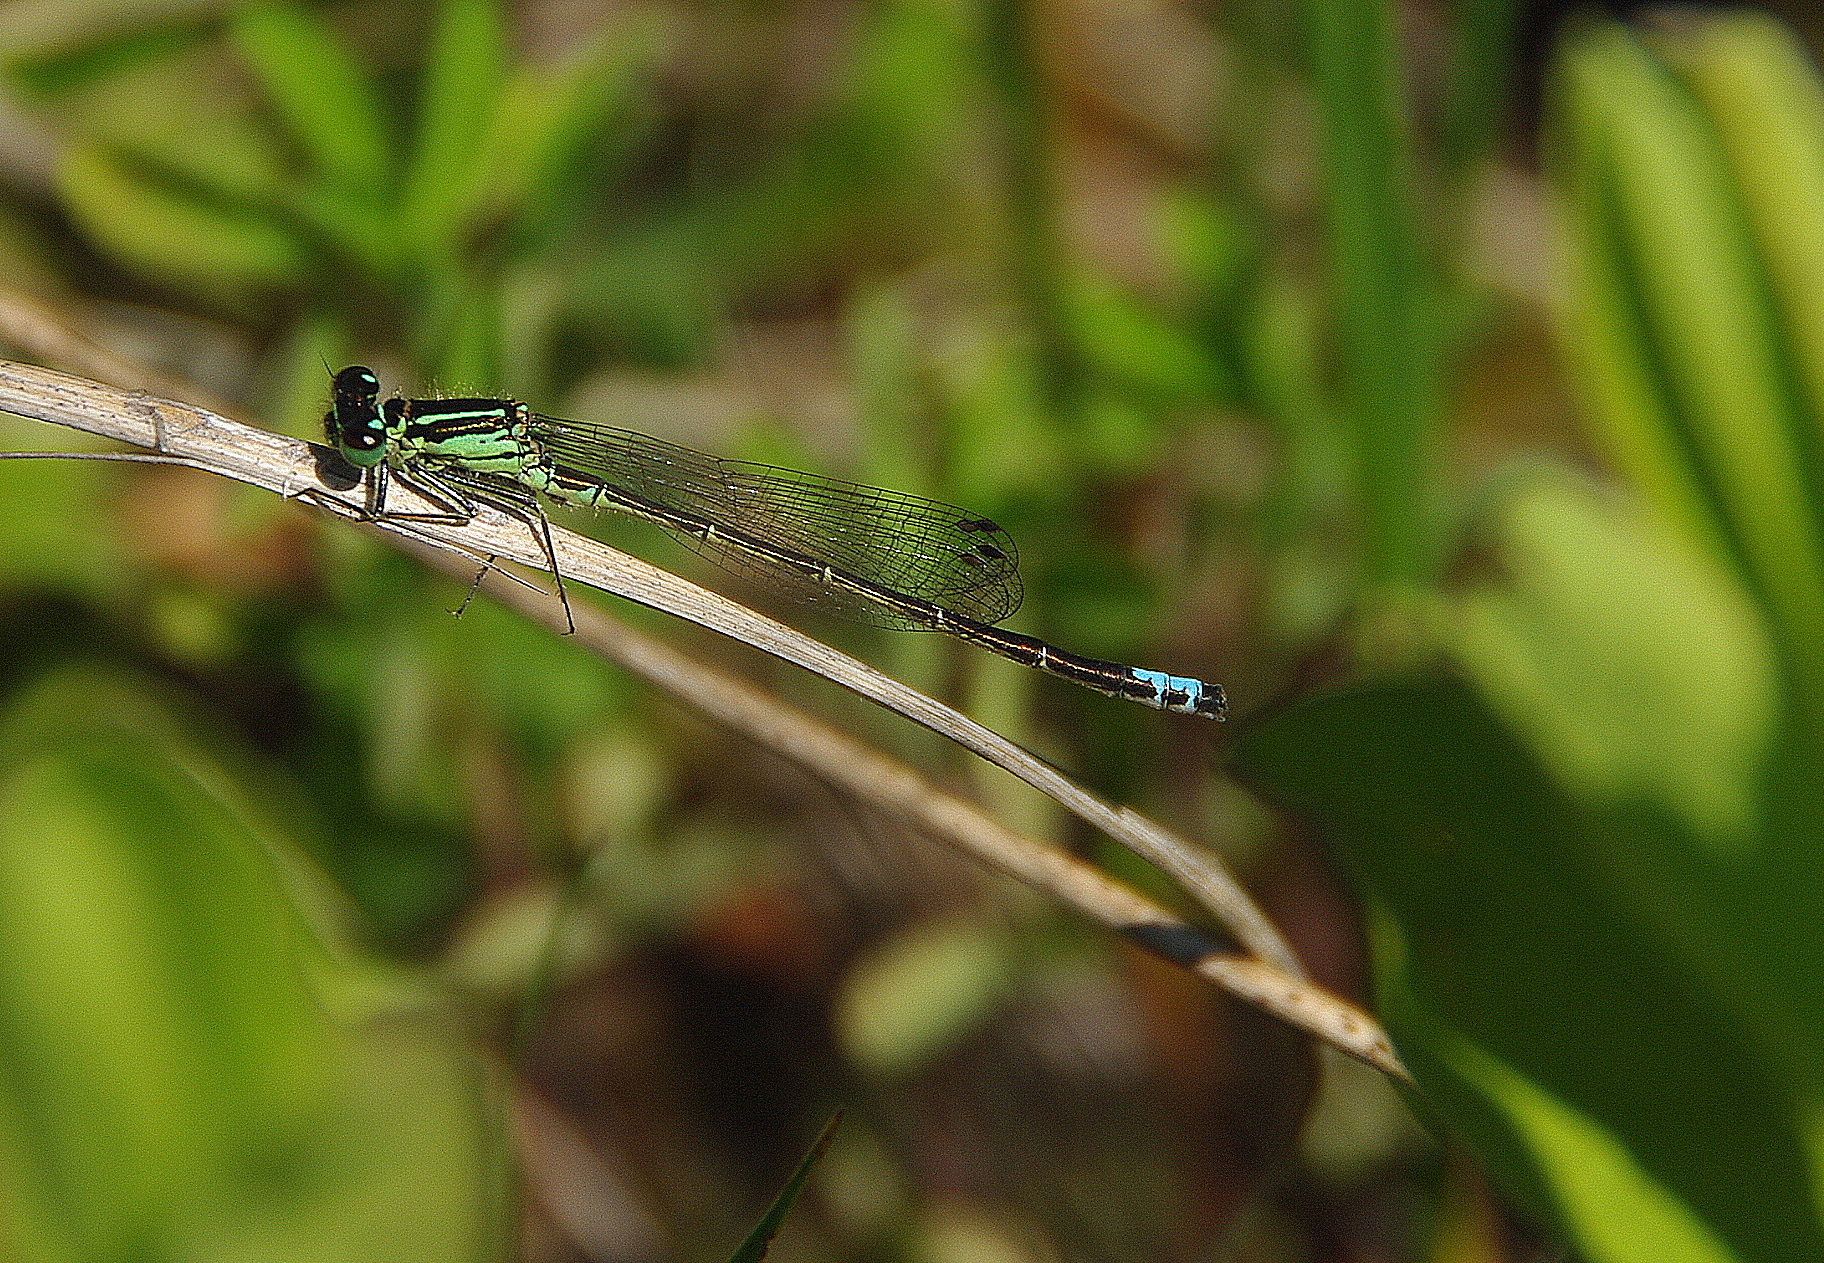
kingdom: Animalia
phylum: Arthropoda
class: Insecta
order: Odonata
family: Coenagrionidae
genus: Ischnura
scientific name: Ischnura verticalis
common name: Eastern forktail
